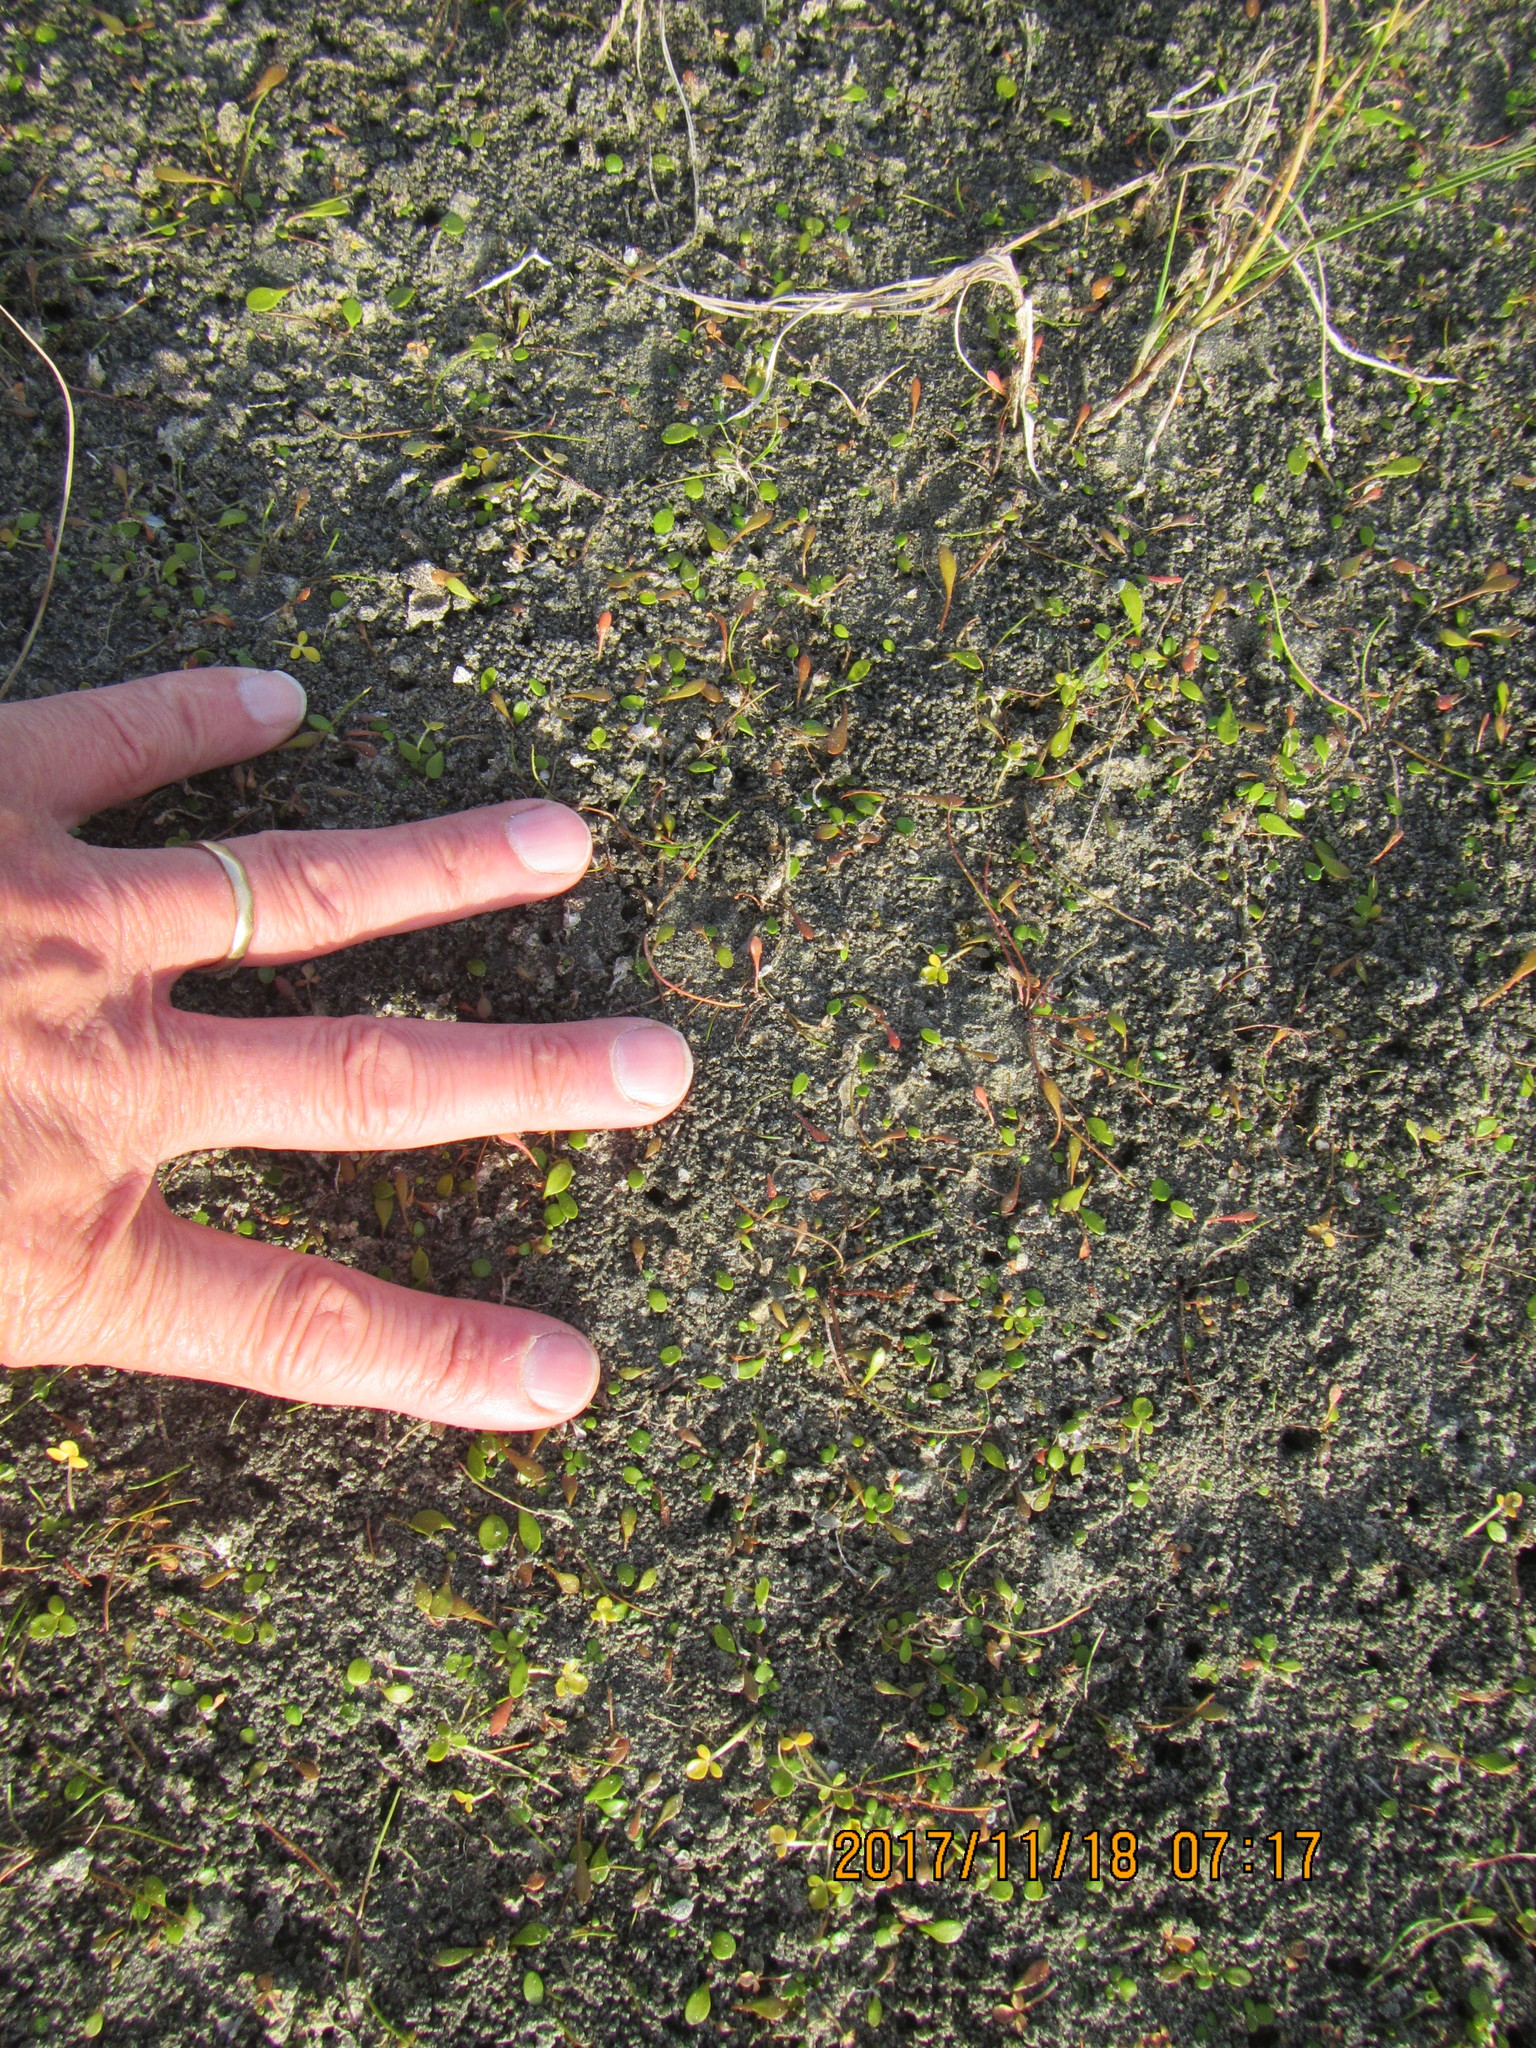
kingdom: Plantae
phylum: Tracheophyta
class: Magnoliopsida
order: Asterales
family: Goodeniaceae
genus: Goodenia
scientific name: Goodenia radicans
